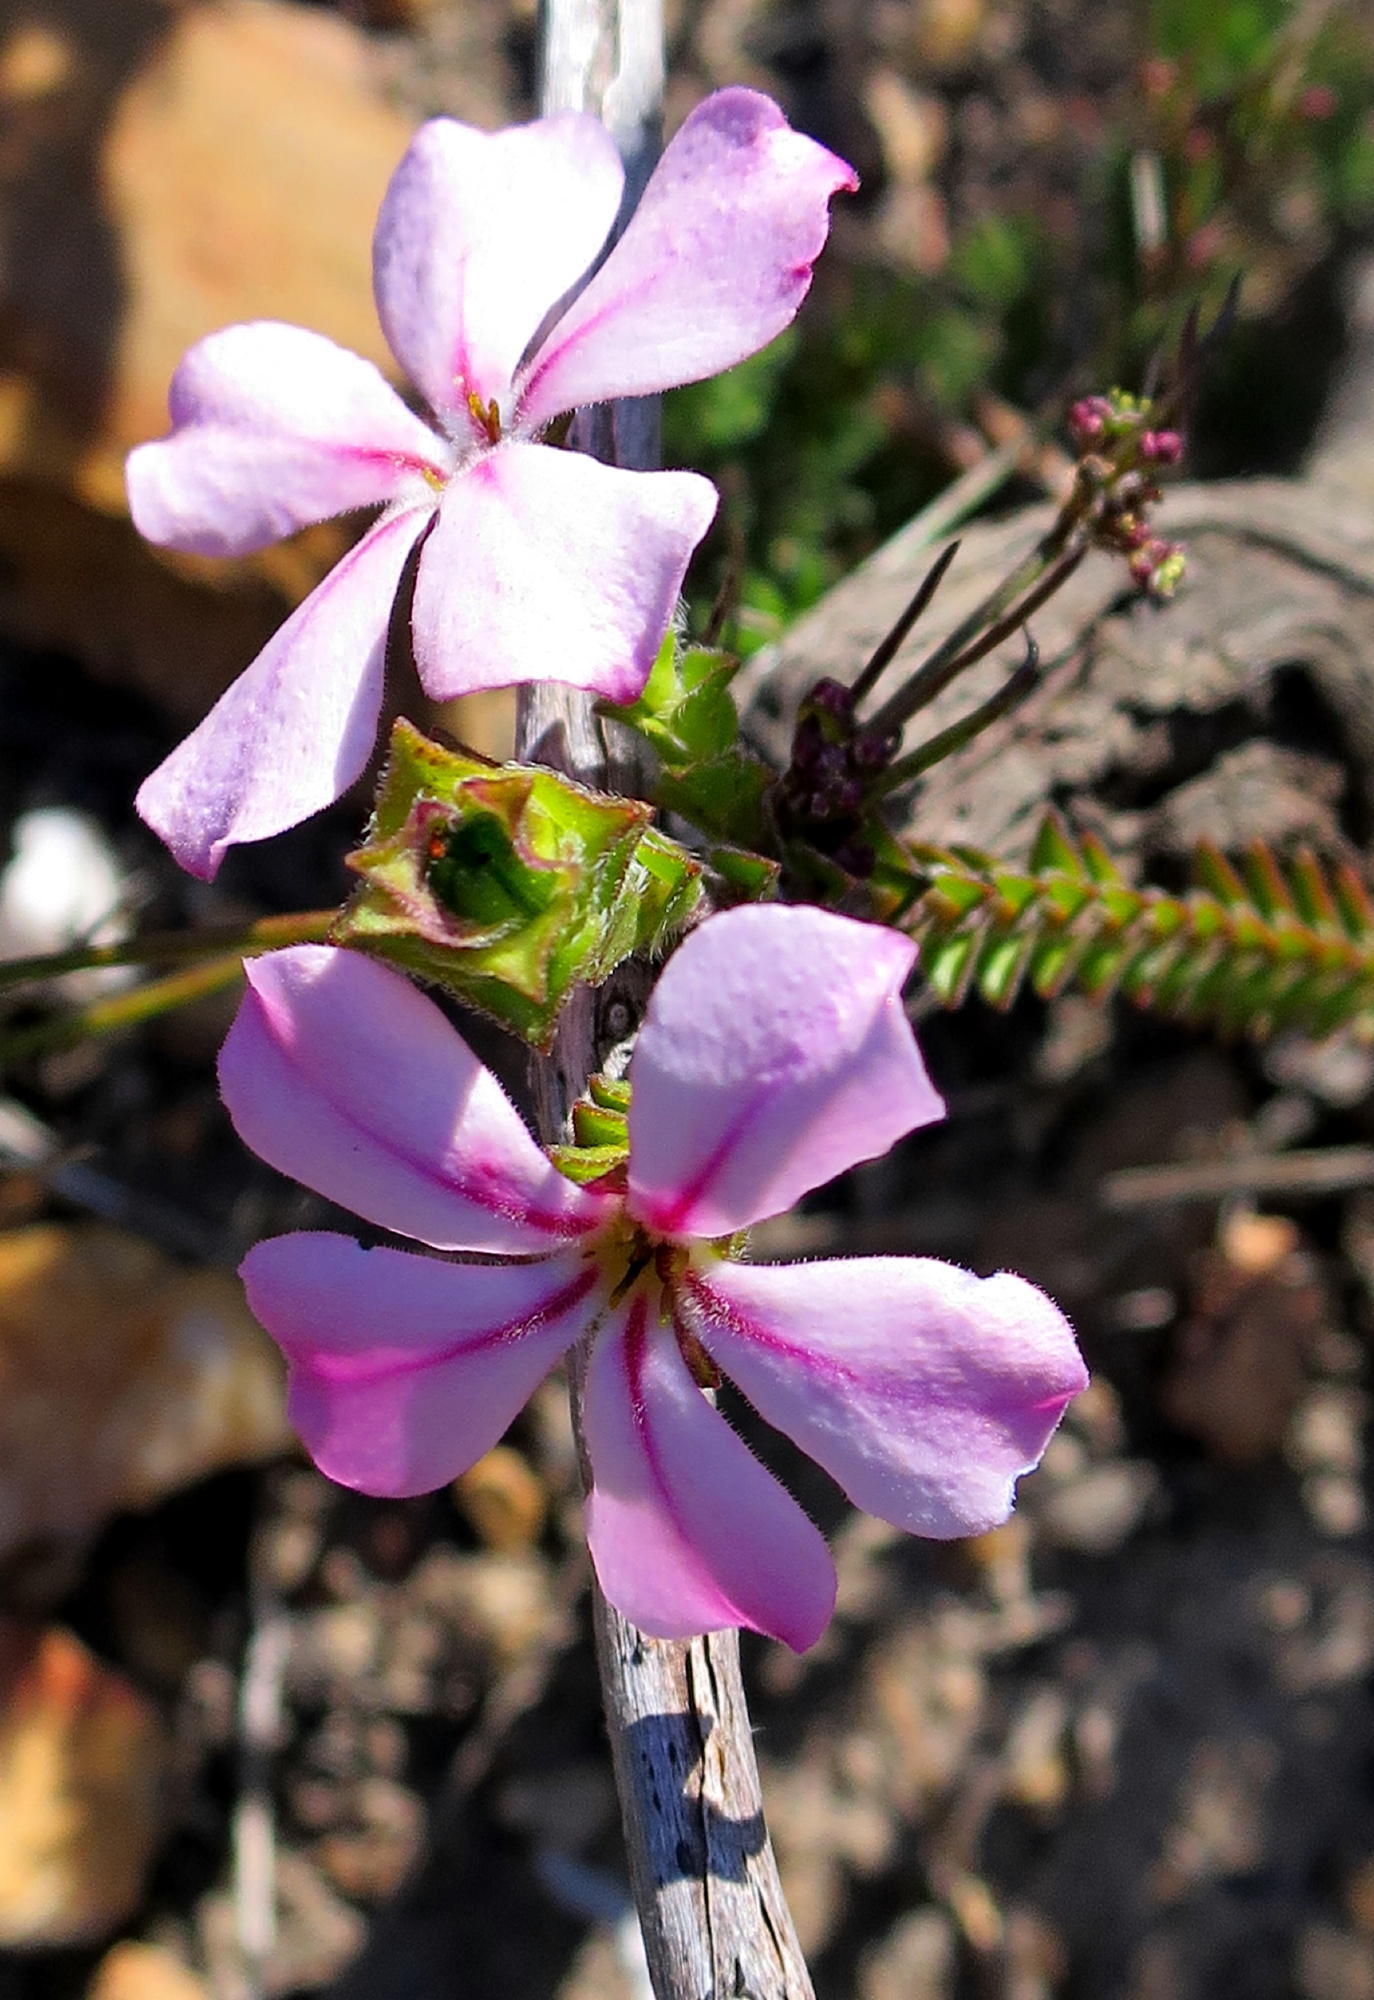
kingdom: Plantae
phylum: Tracheophyta
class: Magnoliopsida
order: Sapindales
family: Rutaceae
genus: Acmadenia
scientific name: Acmadenia tetragona
